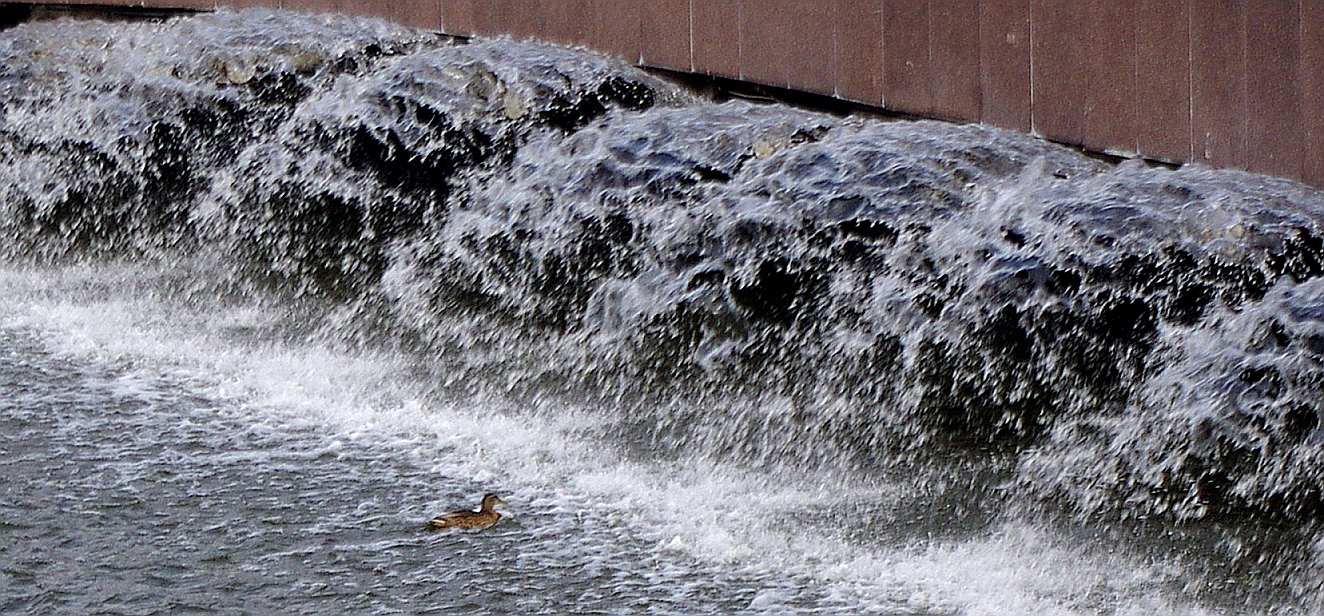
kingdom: Animalia
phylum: Chordata
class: Aves
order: Anseriformes
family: Anatidae
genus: Anas
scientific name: Anas platyrhynchos
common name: Mallard
